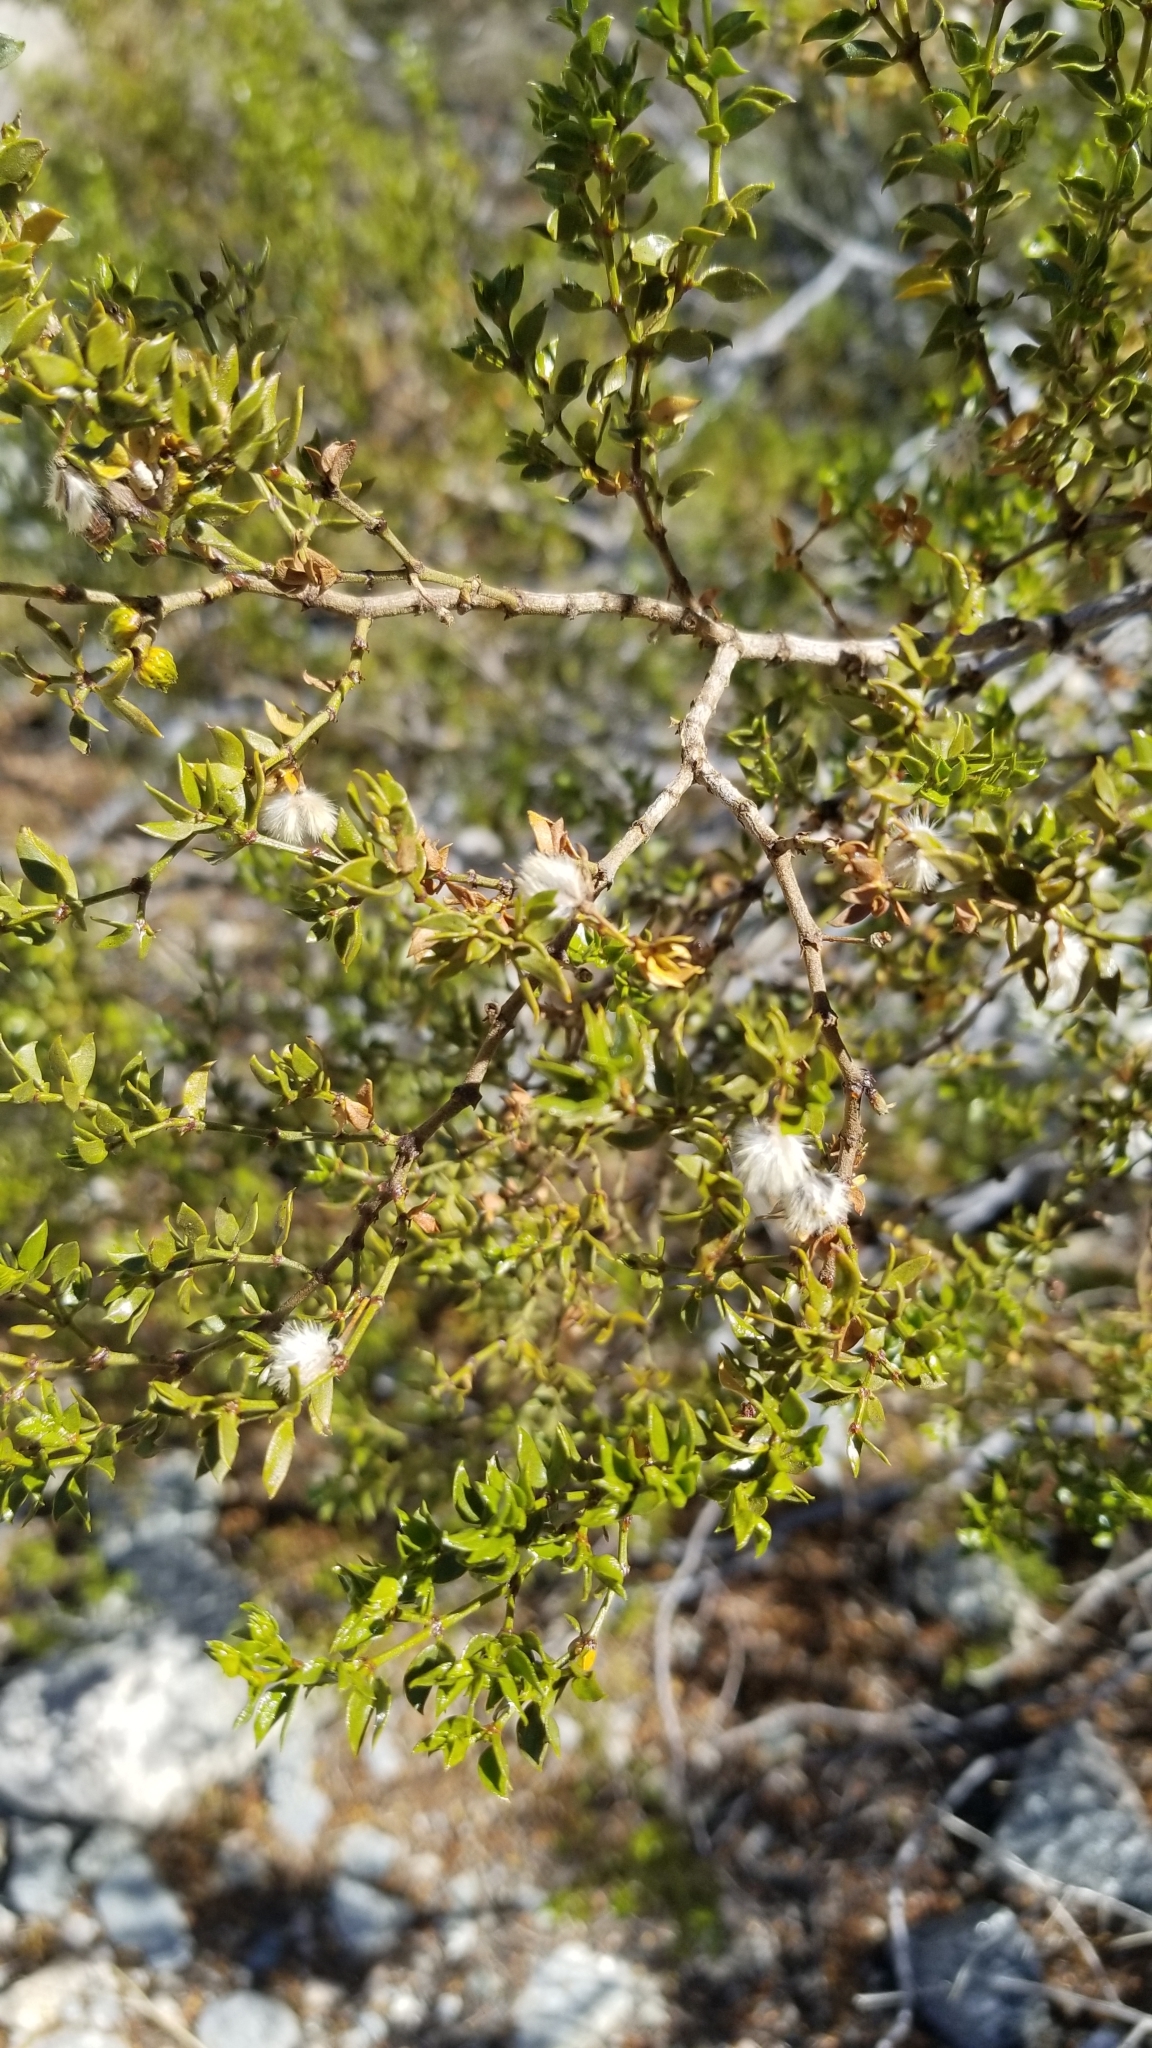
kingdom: Plantae
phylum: Tracheophyta
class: Magnoliopsida
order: Zygophyllales
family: Zygophyllaceae
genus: Larrea
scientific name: Larrea tridentata
